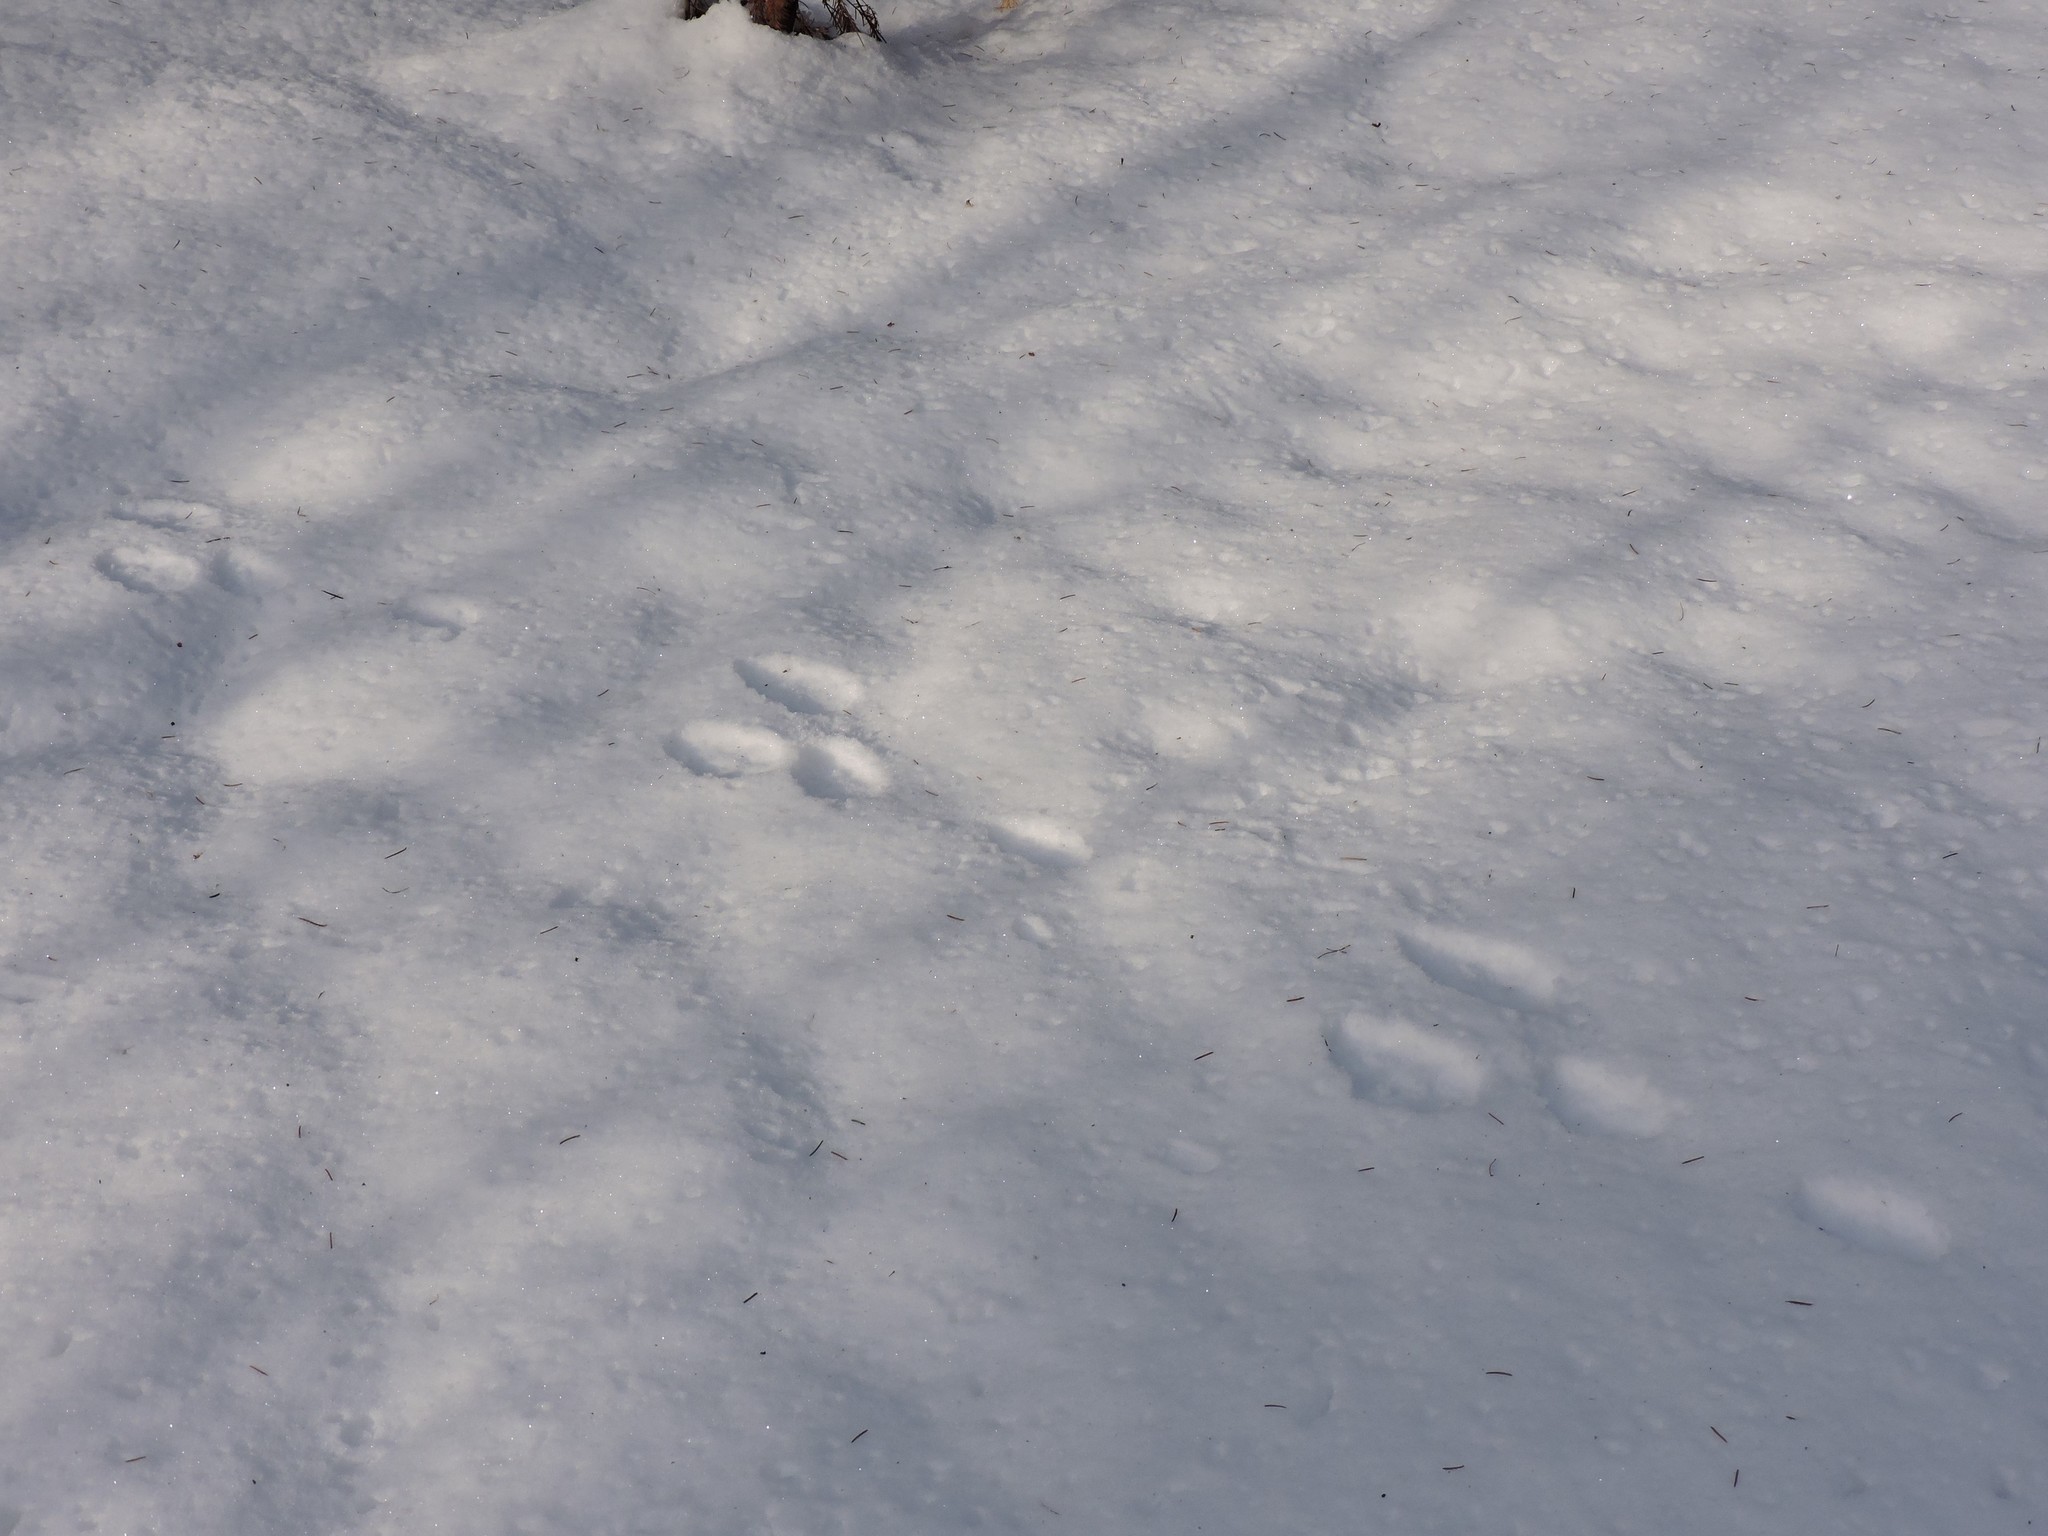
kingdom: Animalia
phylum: Chordata
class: Mammalia
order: Lagomorpha
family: Leporidae
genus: Lepus
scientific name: Lepus timidus
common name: Mountain hare
